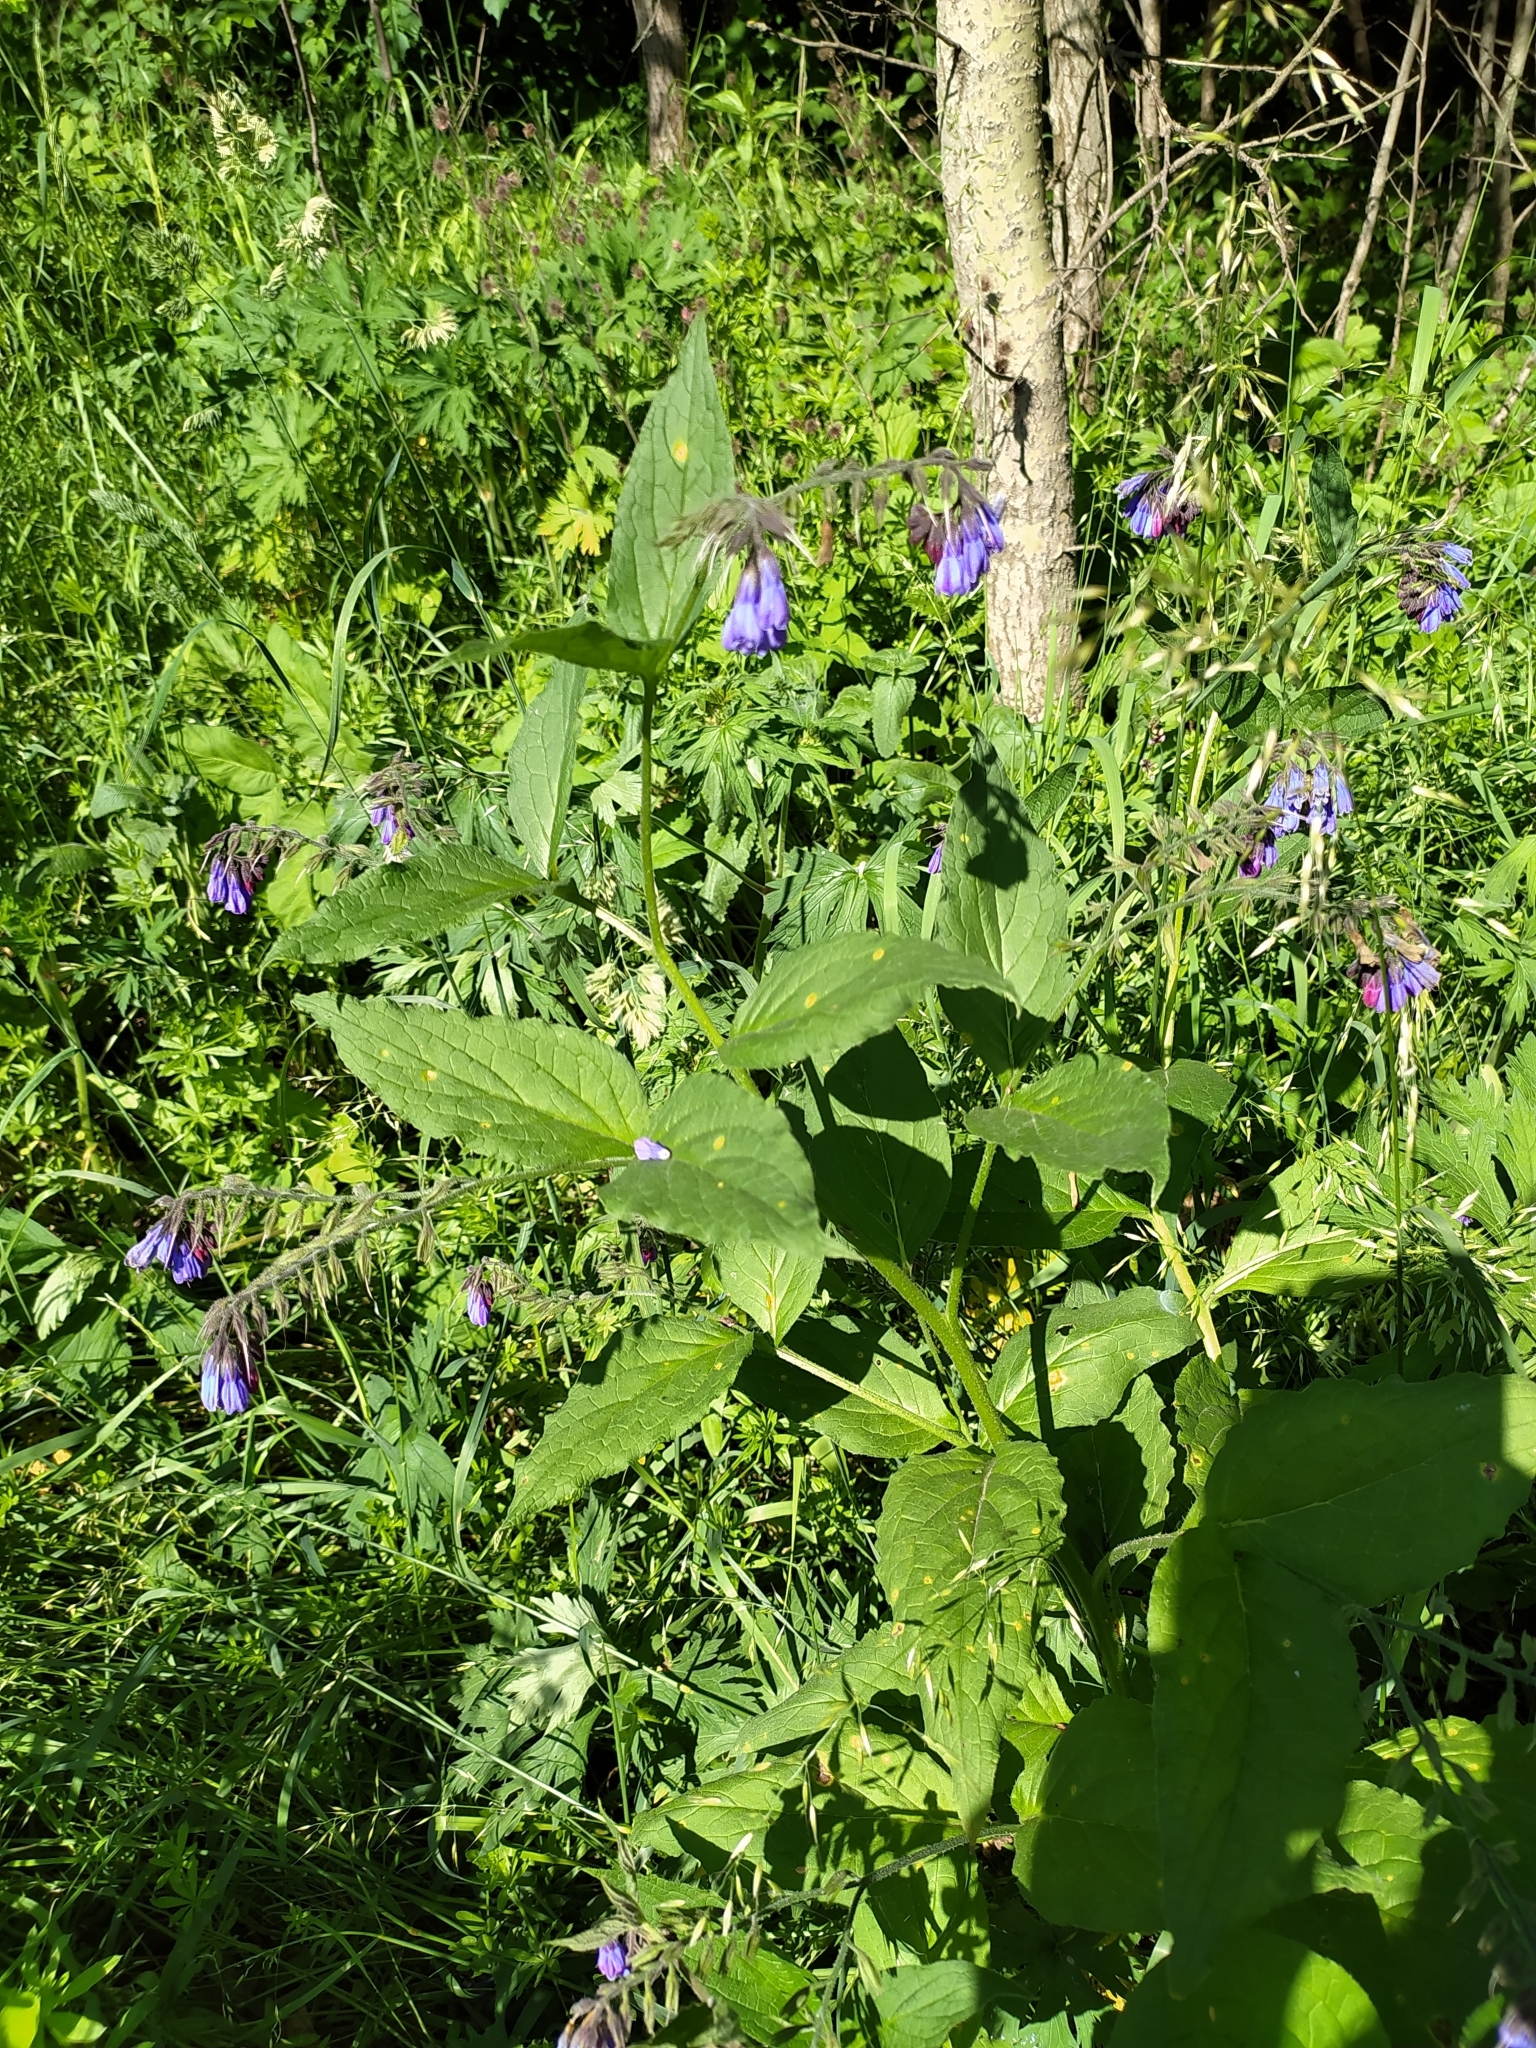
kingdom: Plantae
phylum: Tracheophyta
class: Magnoliopsida
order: Boraginales
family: Boraginaceae
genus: Symphytum
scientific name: Symphytum officinale
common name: Common comfrey
